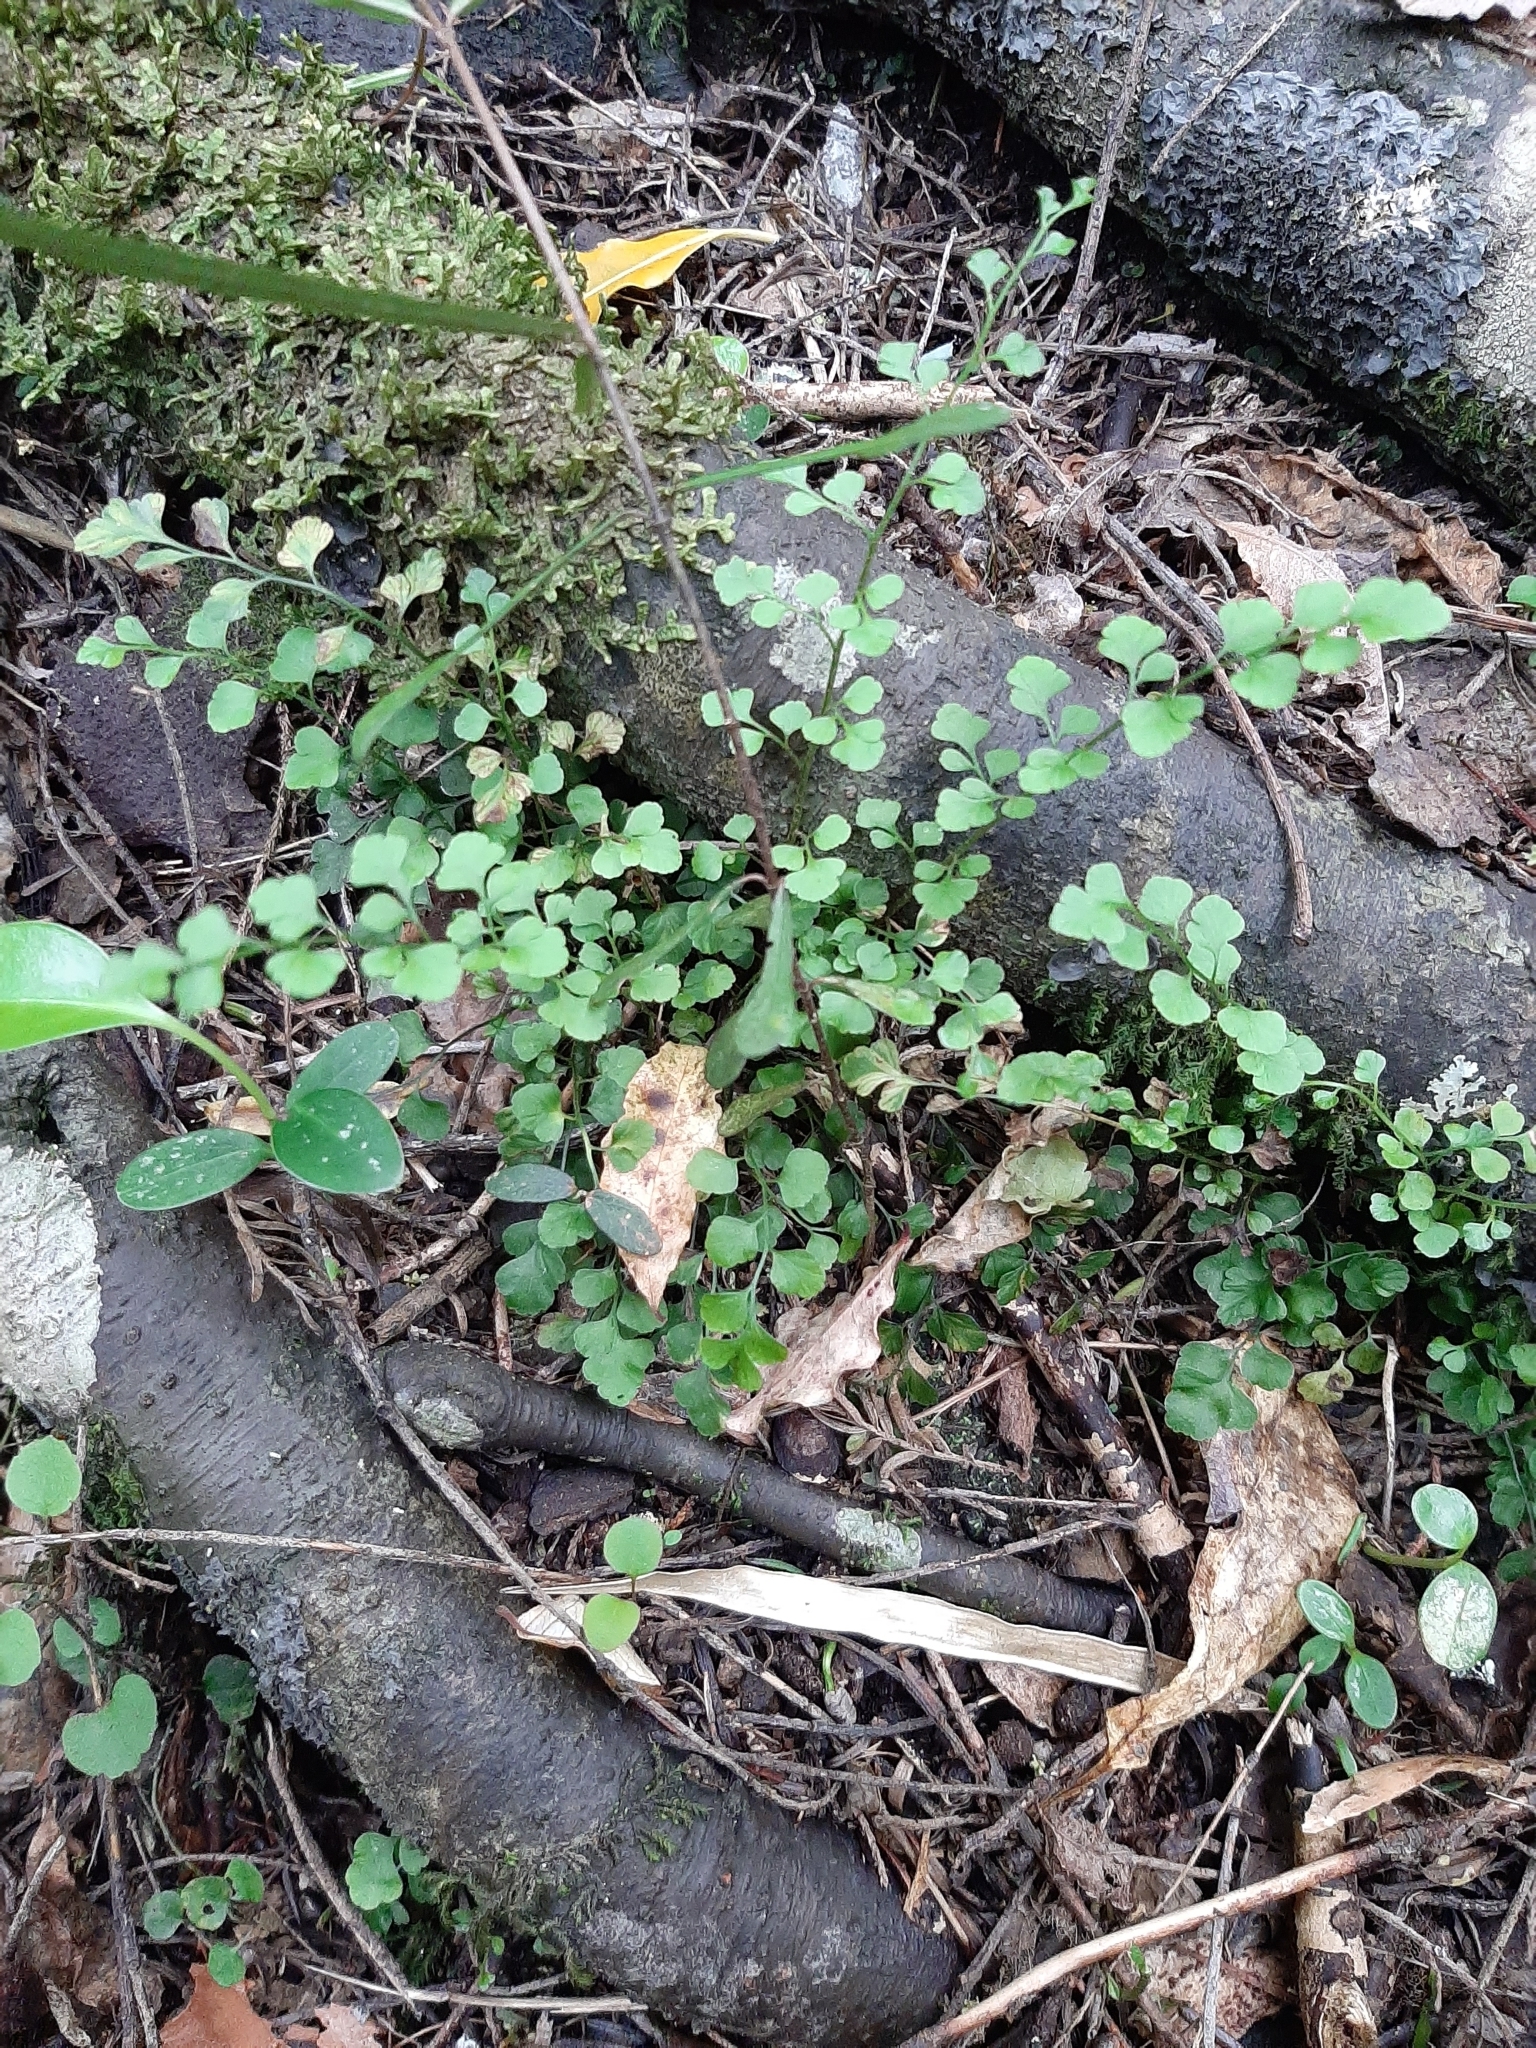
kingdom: Plantae
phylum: Tracheophyta
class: Polypodiopsida
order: Polypodiales
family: Aspleniaceae
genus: Asplenium
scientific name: Asplenium hookerianum
